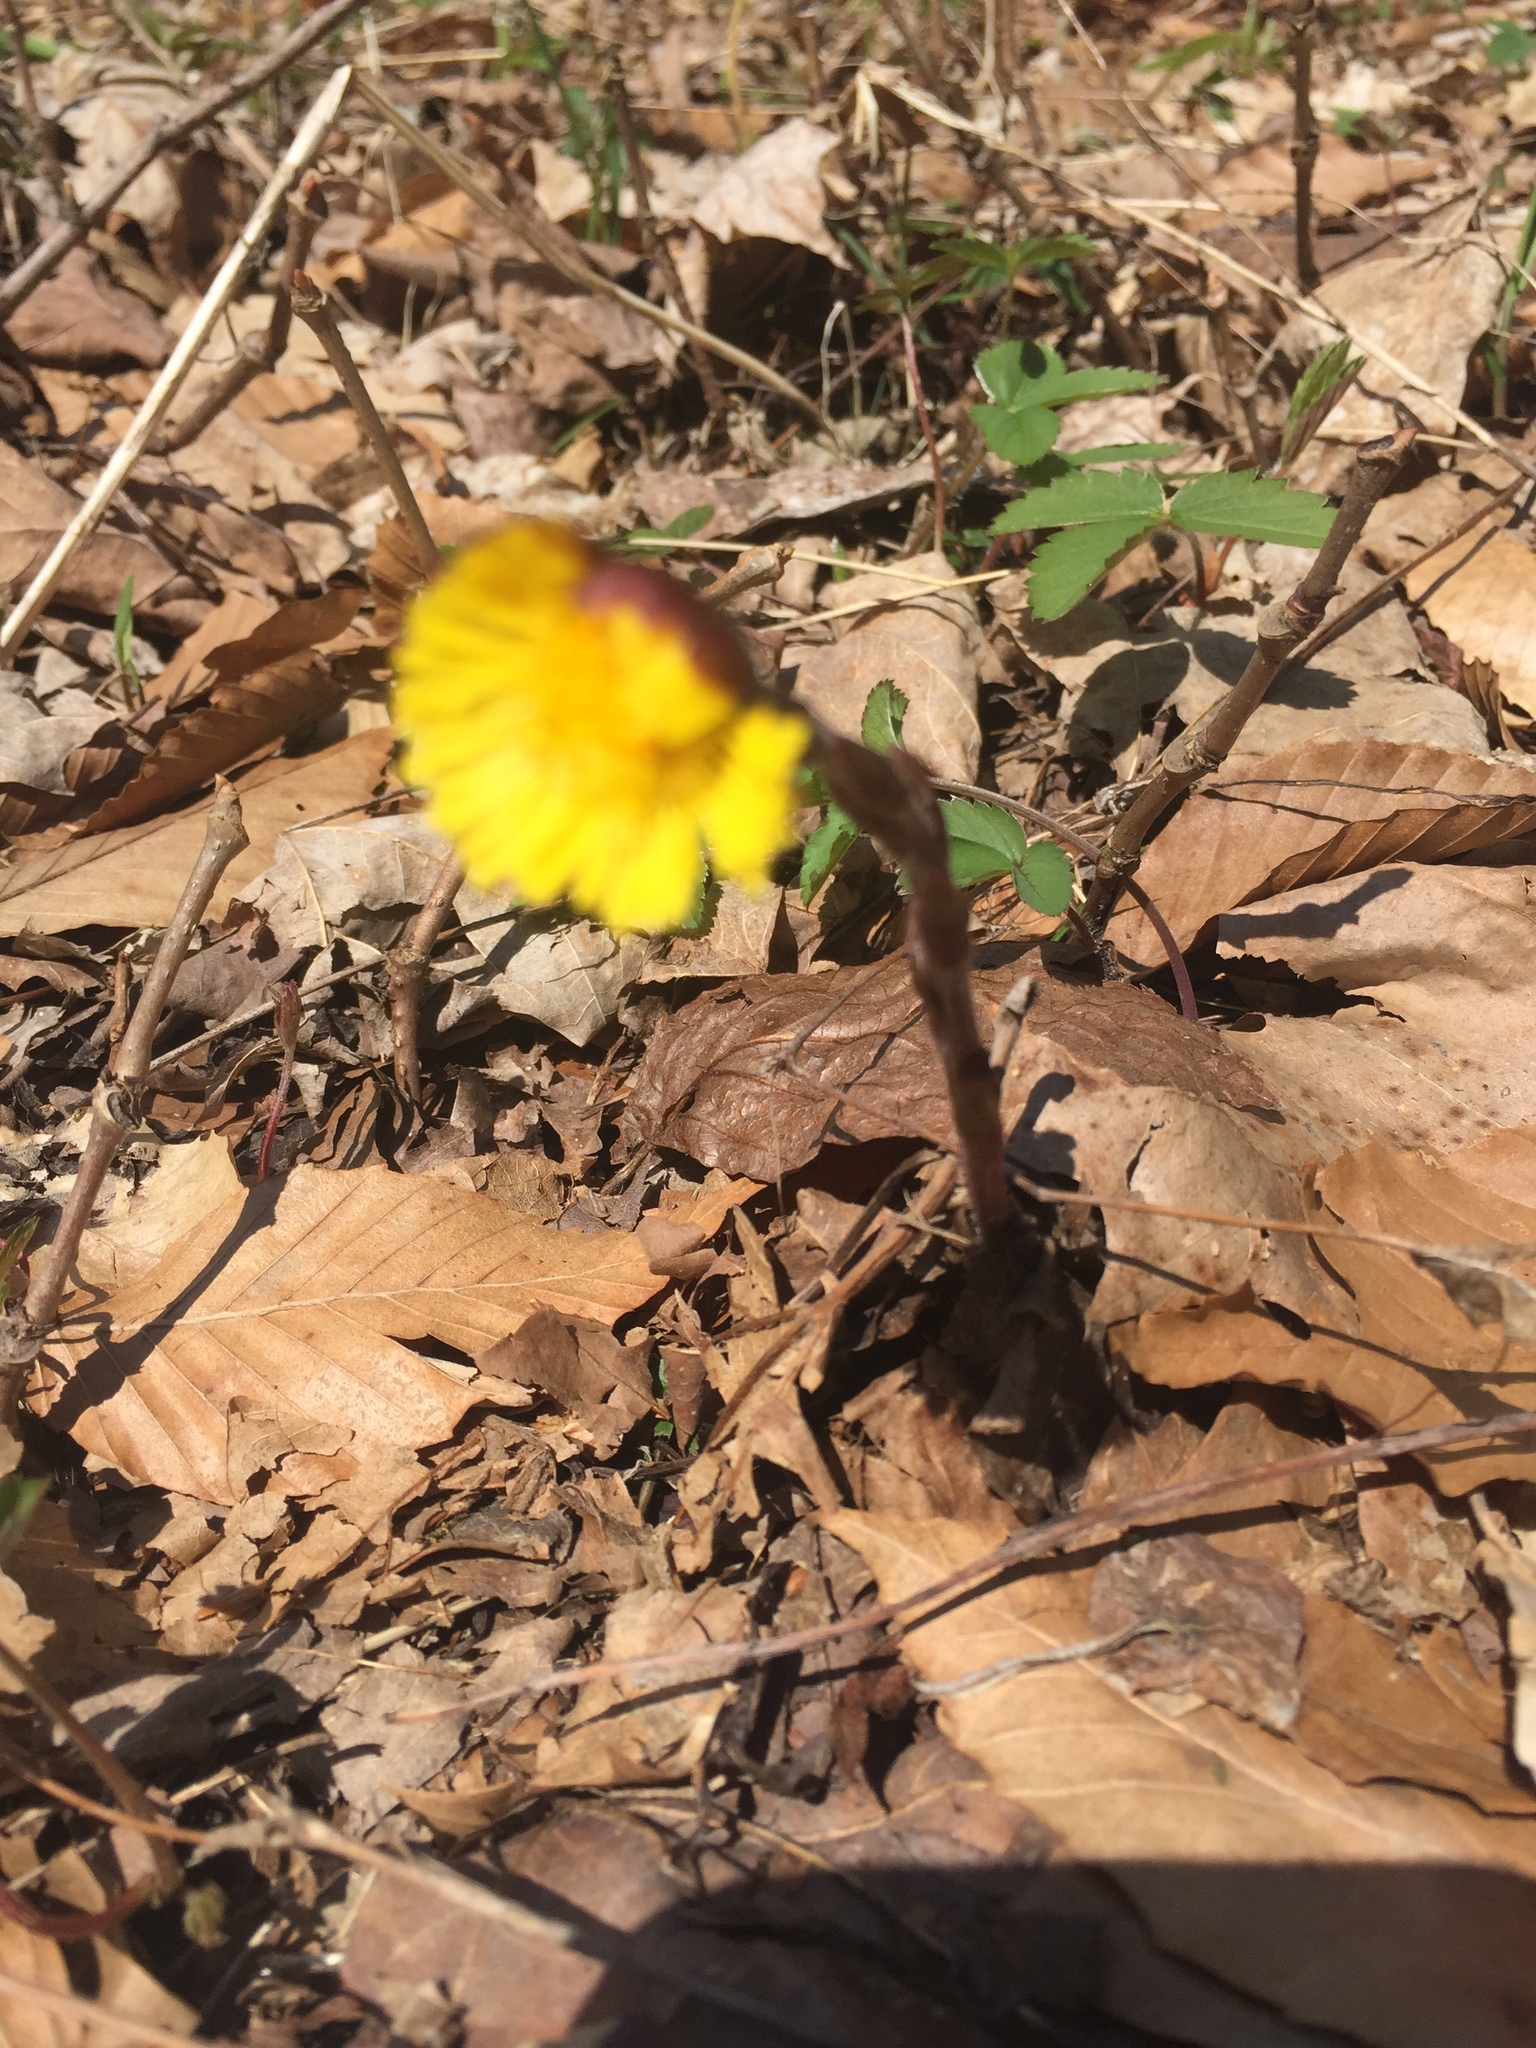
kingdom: Plantae
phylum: Tracheophyta
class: Magnoliopsida
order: Asterales
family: Asteraceae
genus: Tussilago
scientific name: Tussilago farfara
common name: Coltsfoot
